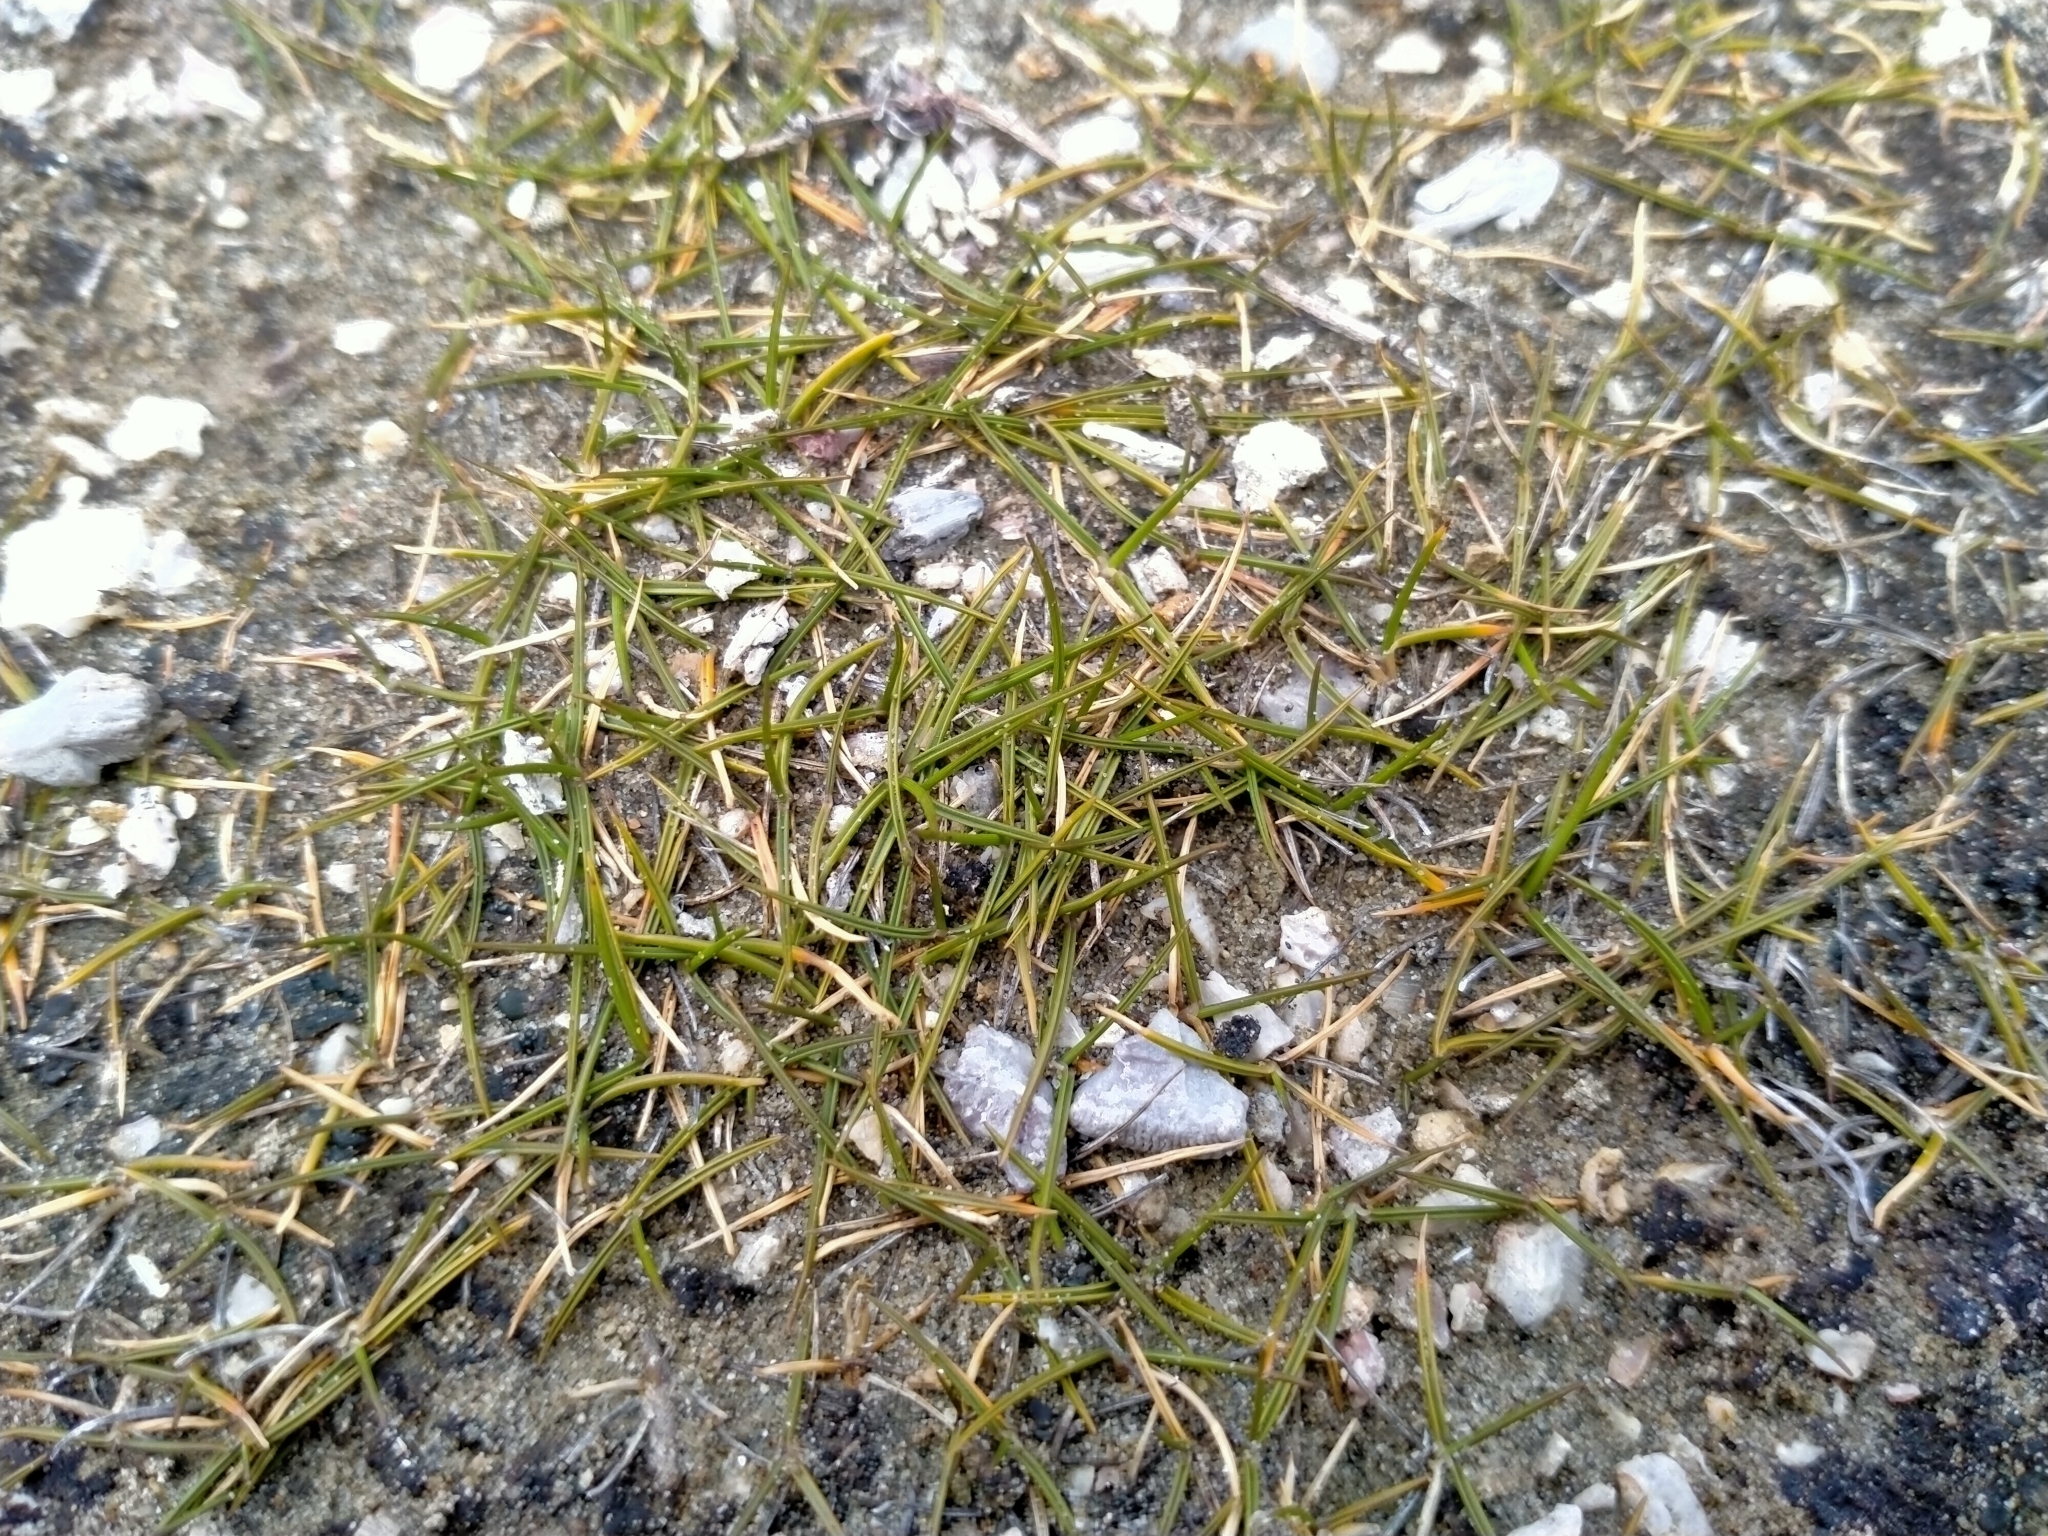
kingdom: Plantae
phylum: Tracheophyta
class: Liliopsida
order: Poales
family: Poaceae
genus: Zoysia
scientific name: Zoysia minima
